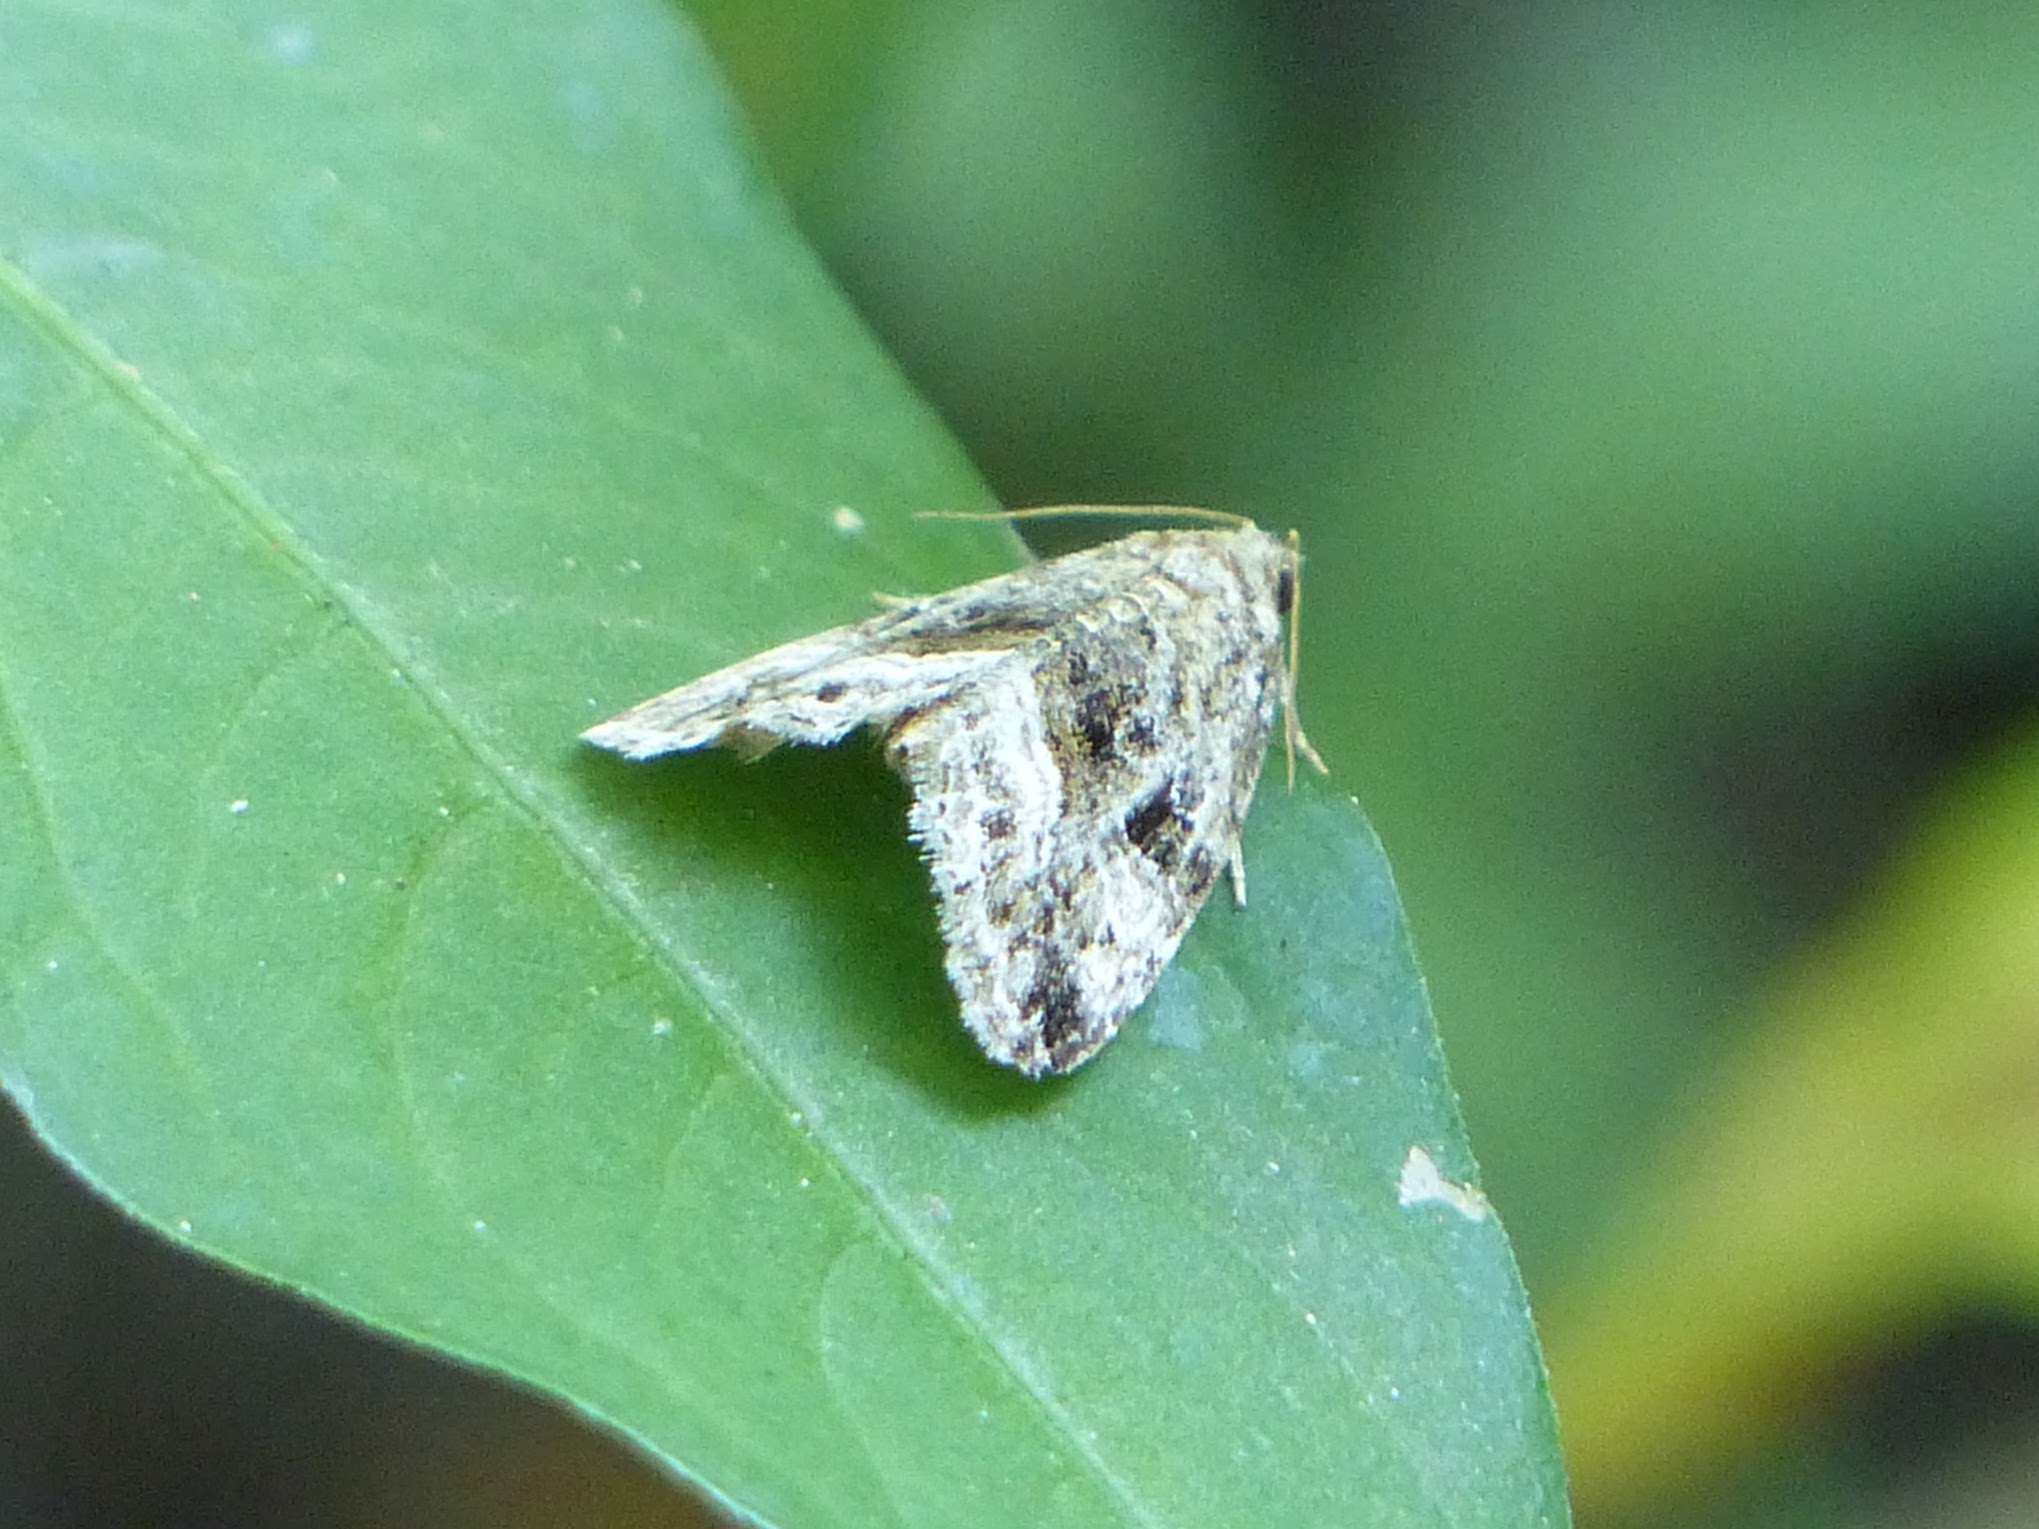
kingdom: Animalia
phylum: Arthropoda
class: Insecta
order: Lepidoptera
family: Noctuidae
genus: Protodeltote
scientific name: Protodeltote muscosula
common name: Large mossy glyph
